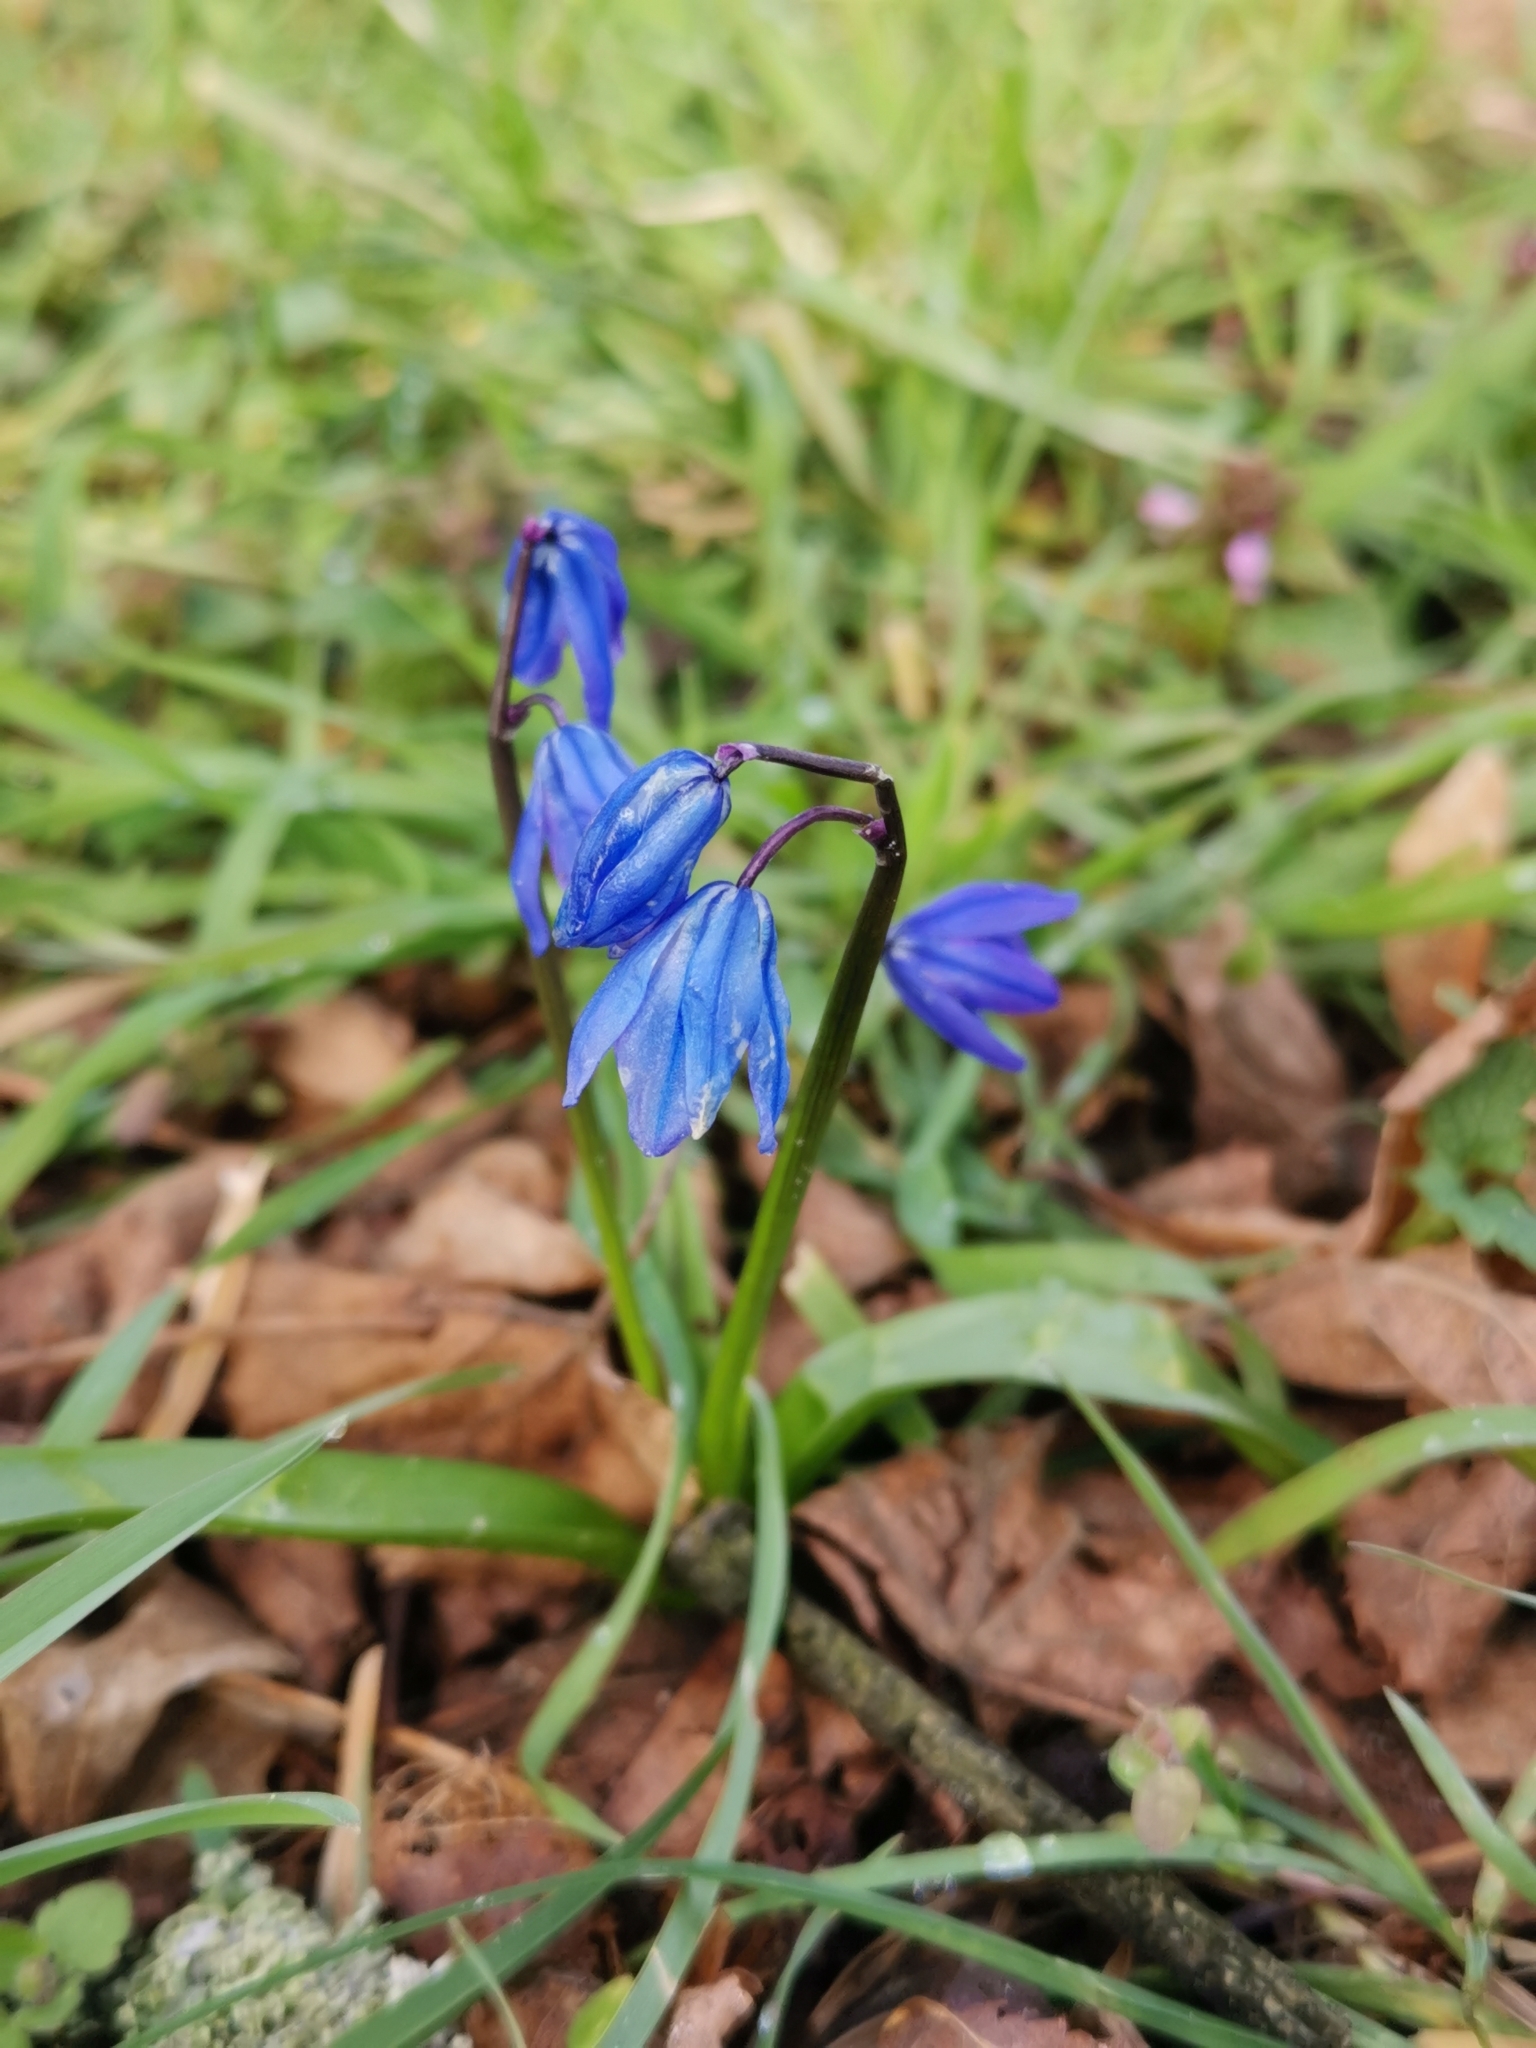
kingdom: Plantae
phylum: Tracheophyta
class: Liliopsida
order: Asparagales
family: Asparagaceae
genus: Scilla
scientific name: Scilla siberica
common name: Siberian squill
